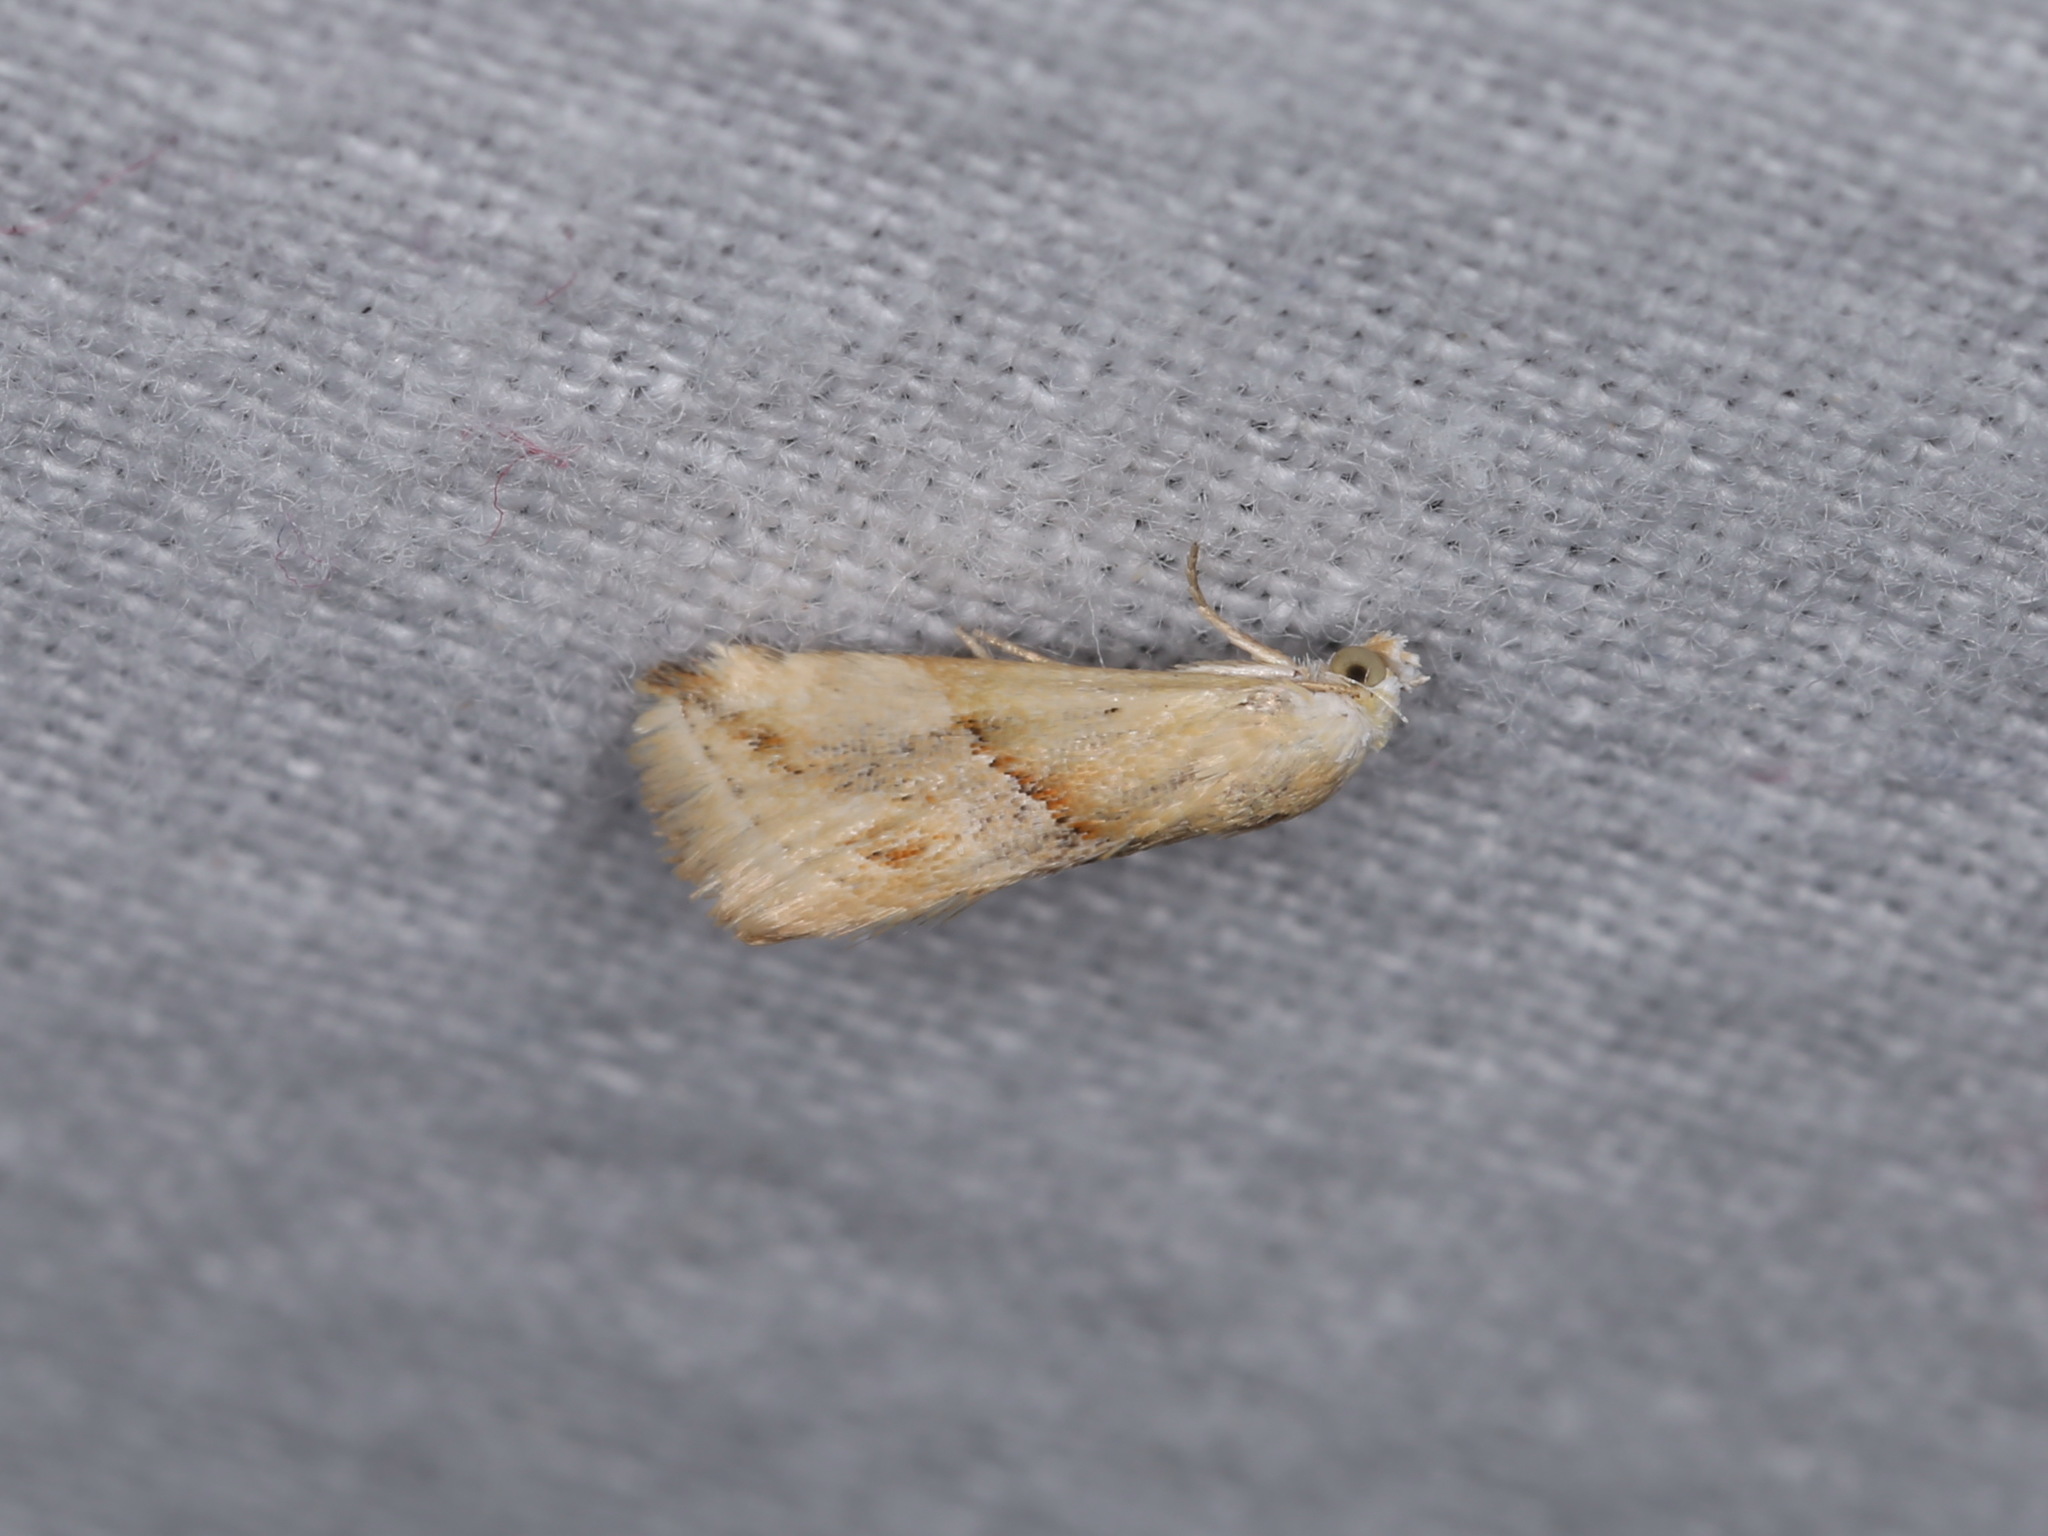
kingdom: Animalia
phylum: Arthropoda
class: Insecta
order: Lepidoptera
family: Noctuidae
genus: Eublemma
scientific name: Eublemma inconspicua
